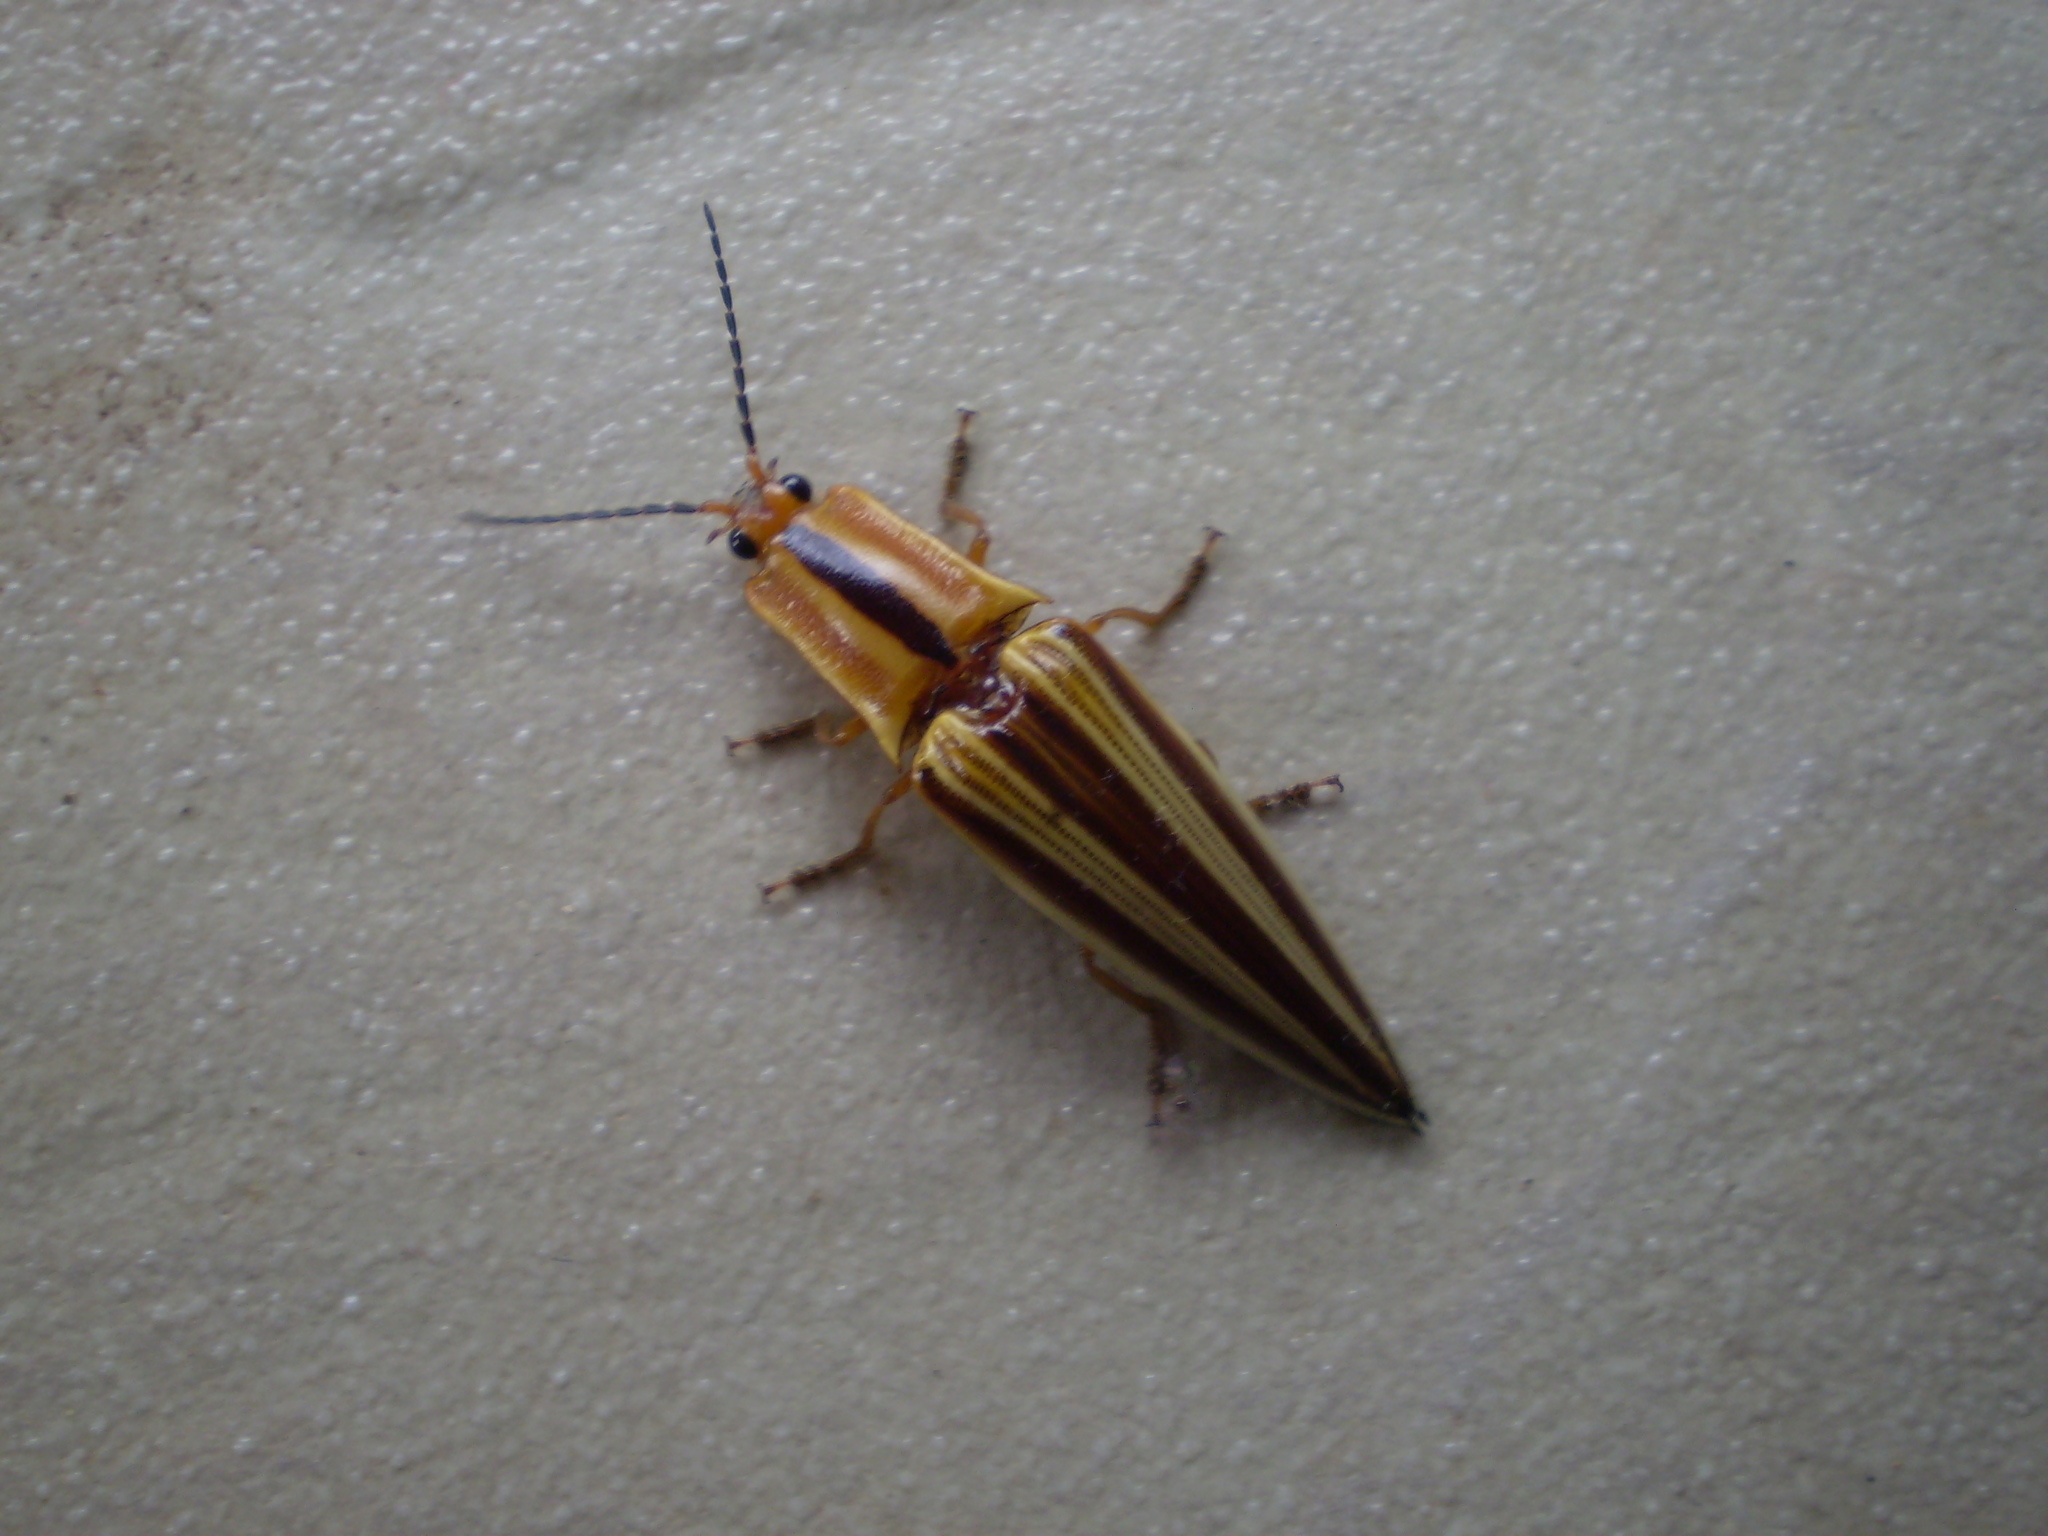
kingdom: Animalia
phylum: Arthropoda
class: Insecta
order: Coleoptera
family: Elateridae
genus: Semiotus
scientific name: Semiotus
